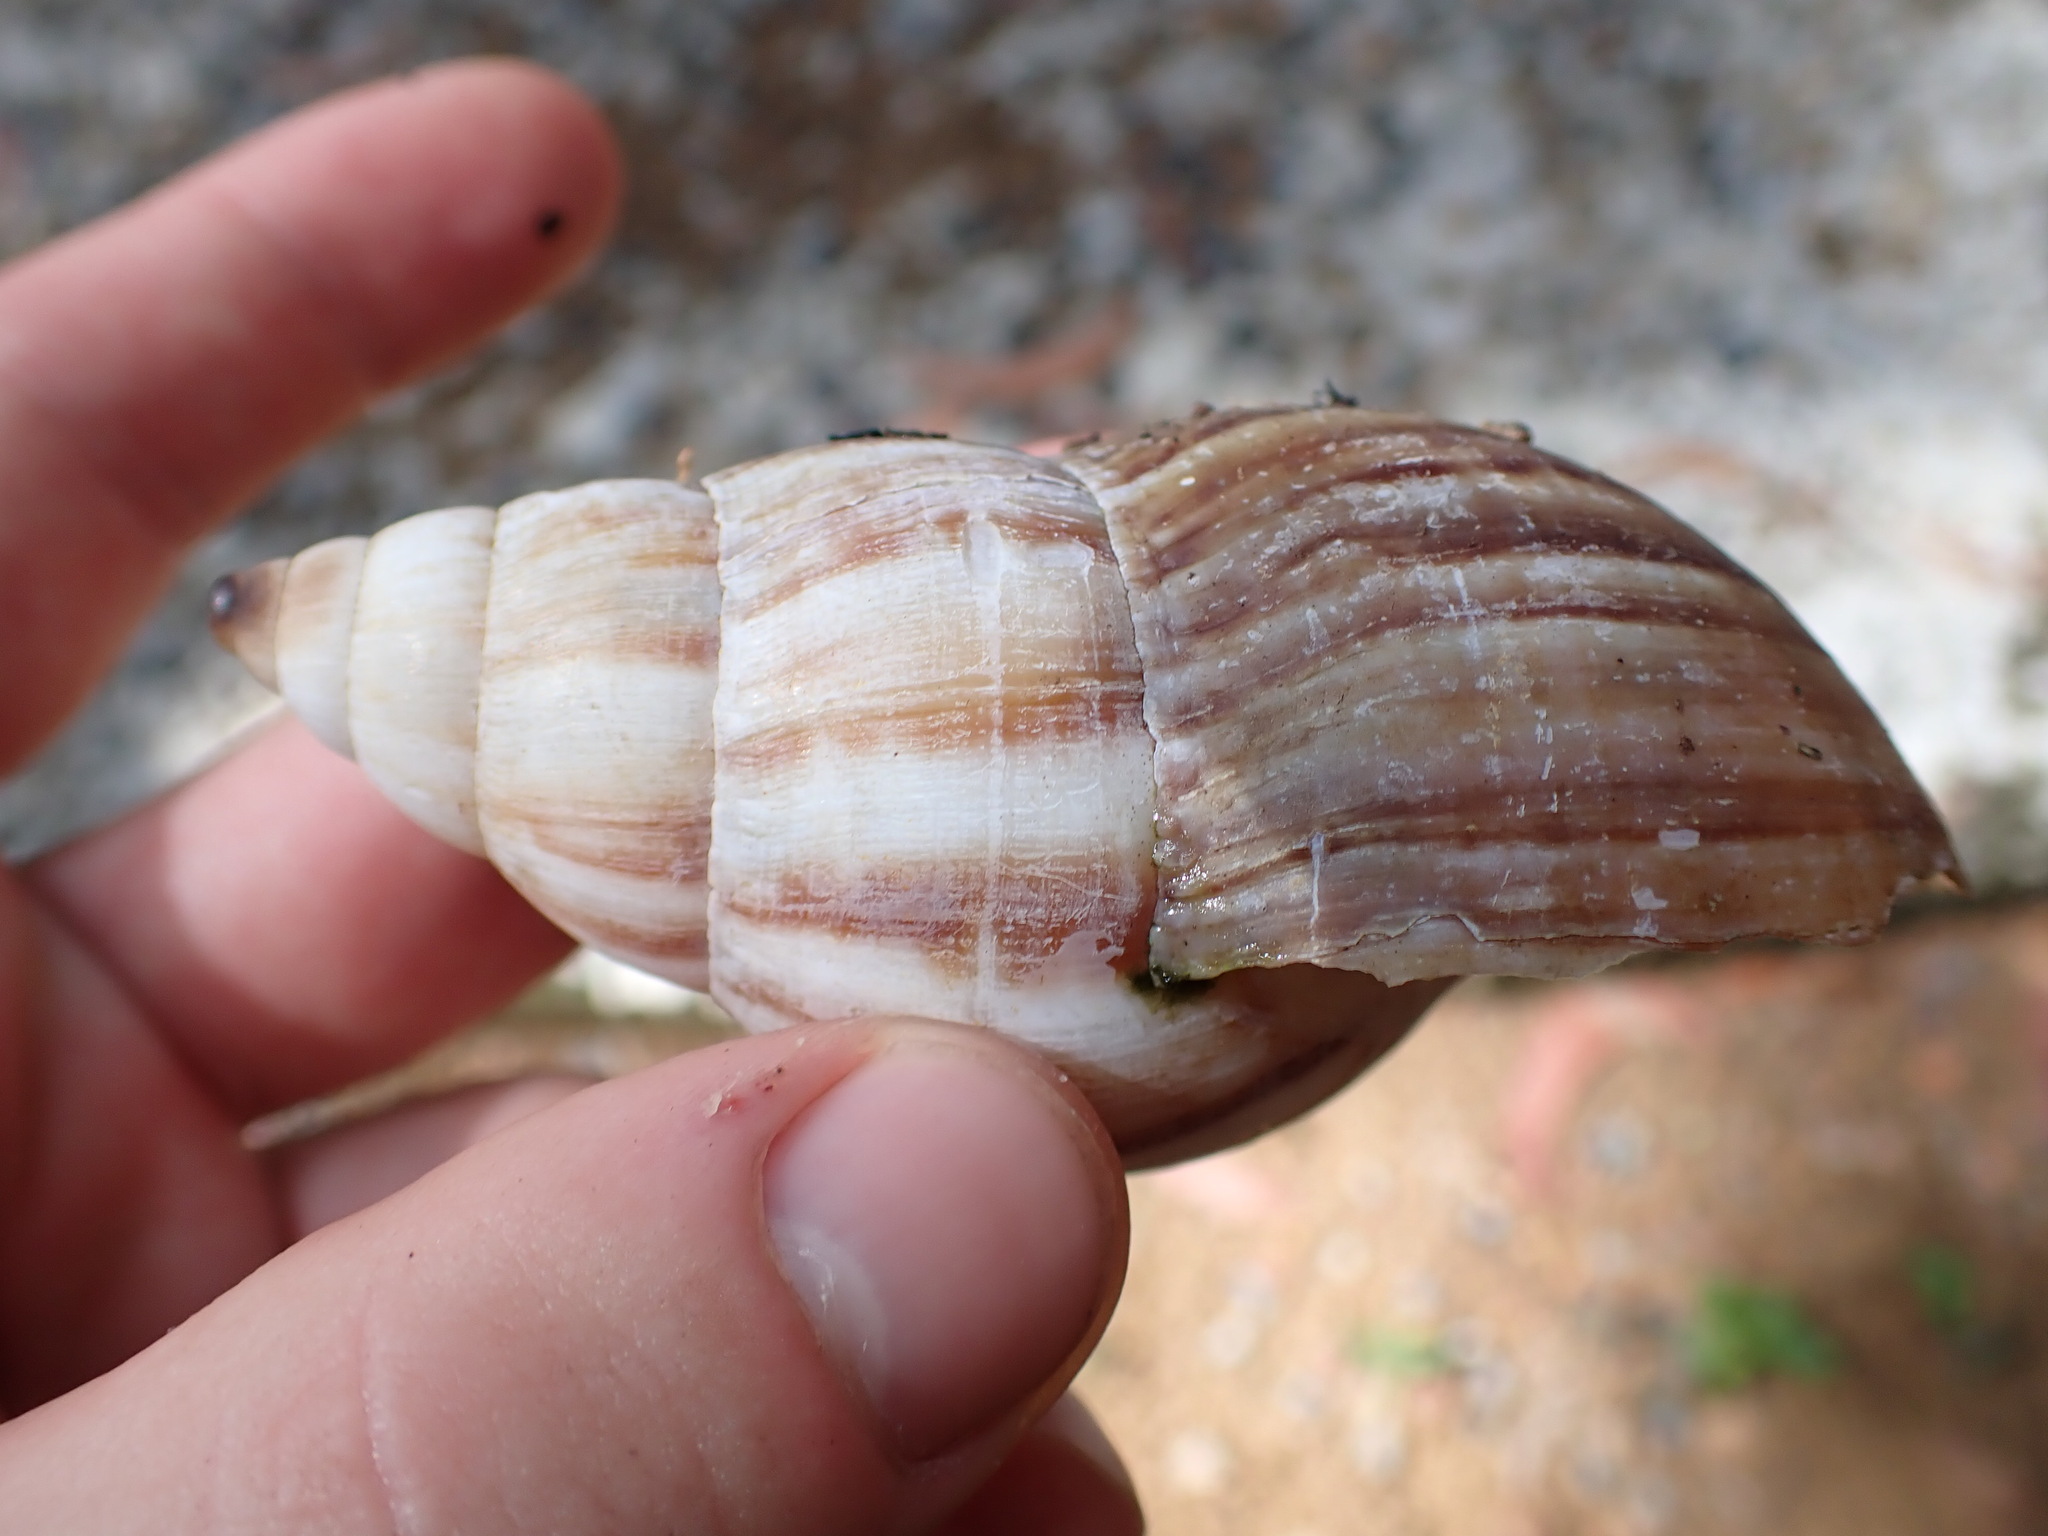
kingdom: Animalia
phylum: Mollusca
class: Gastropoda
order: Stylommatophora
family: Achatinidae
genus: Lissachatina
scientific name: Lissachatina fulica
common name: Giant african snail
